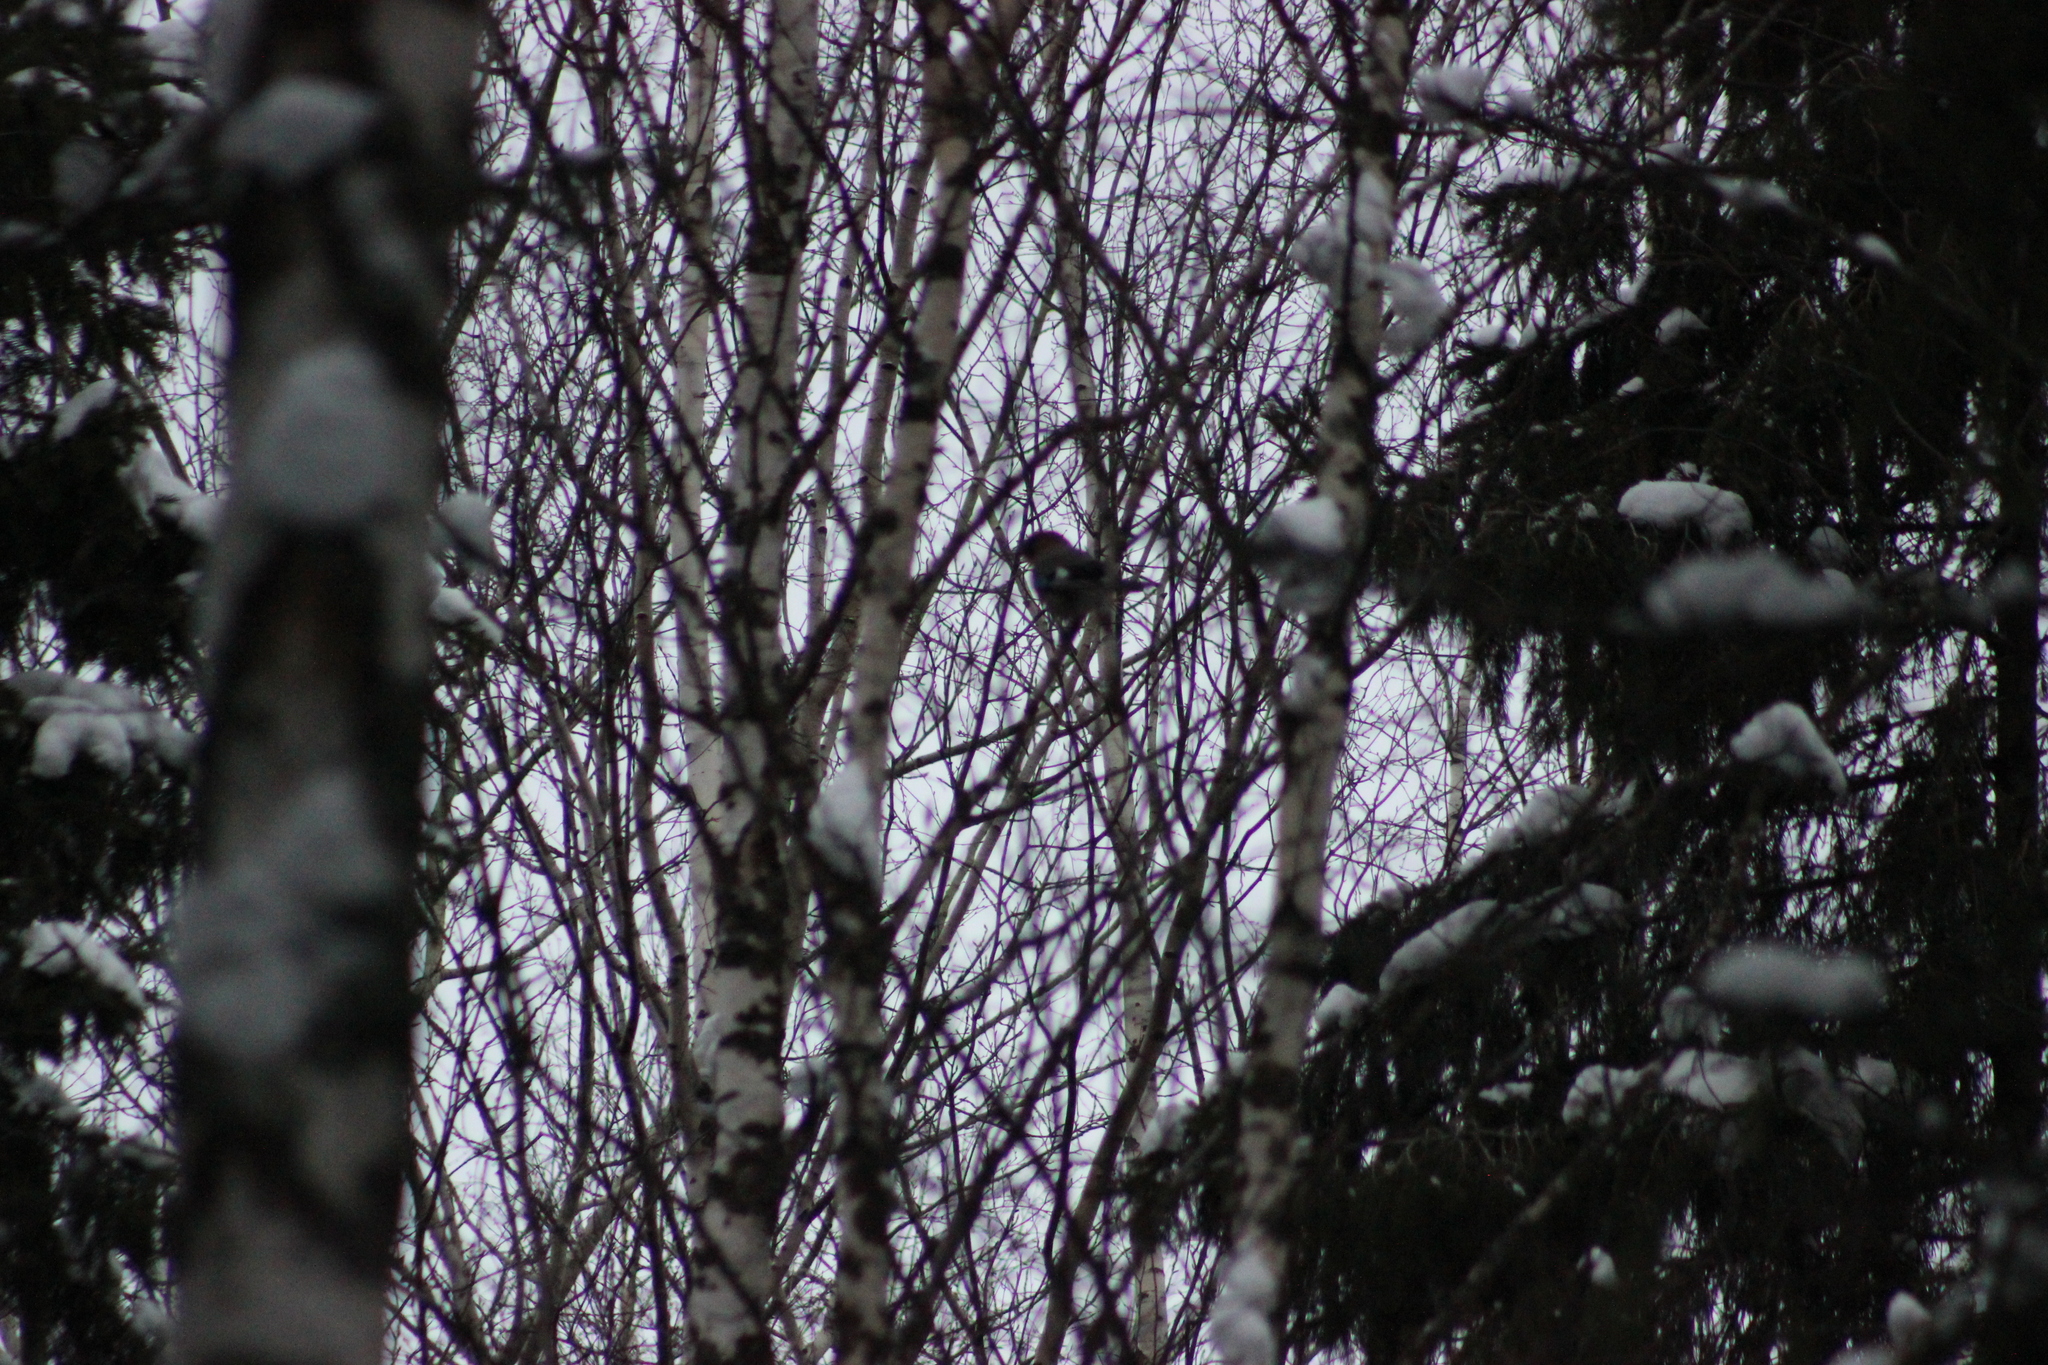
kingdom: Animalia
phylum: Chordata
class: Aves
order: Passeriformes
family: Corvidae
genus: Garrulus
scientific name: Garrulus glandarius
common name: Eurasian jay
